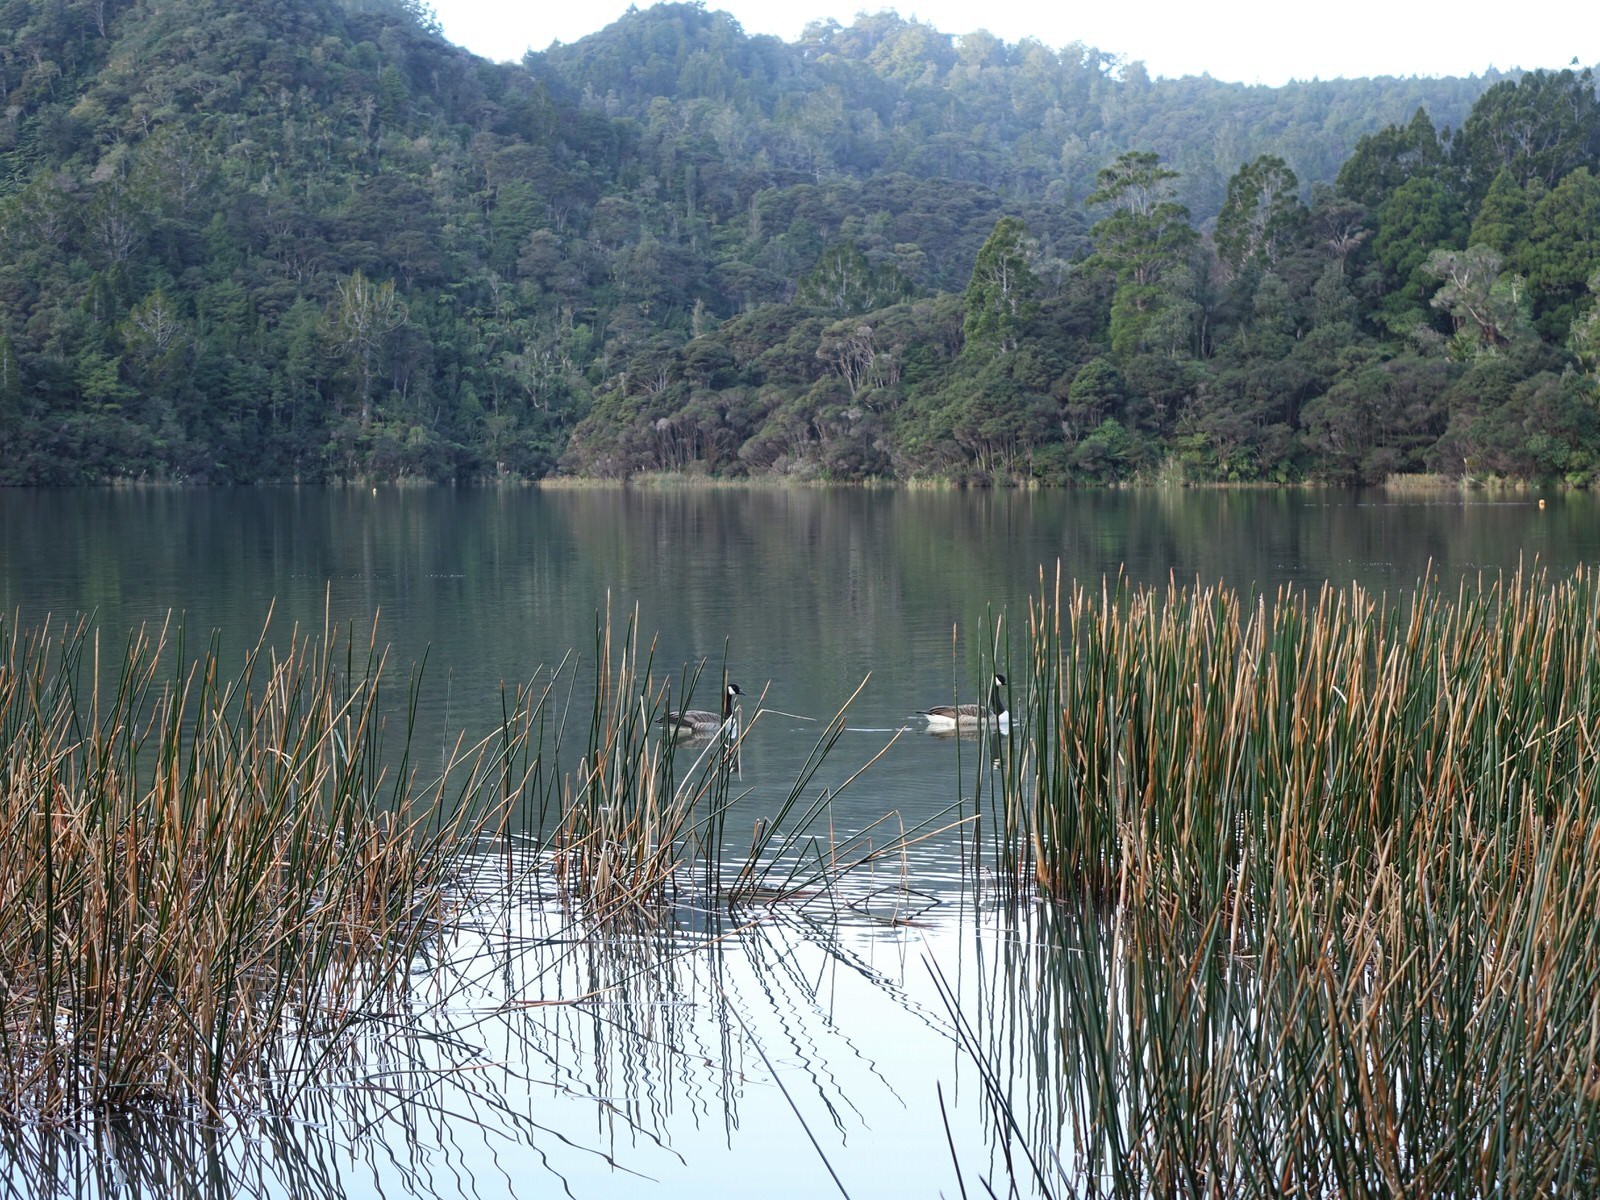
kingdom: Animalia
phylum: Chordata
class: Aves
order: Anseriformes
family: Anatidae
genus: Branta
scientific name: Branta canadensis
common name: Canada goose
